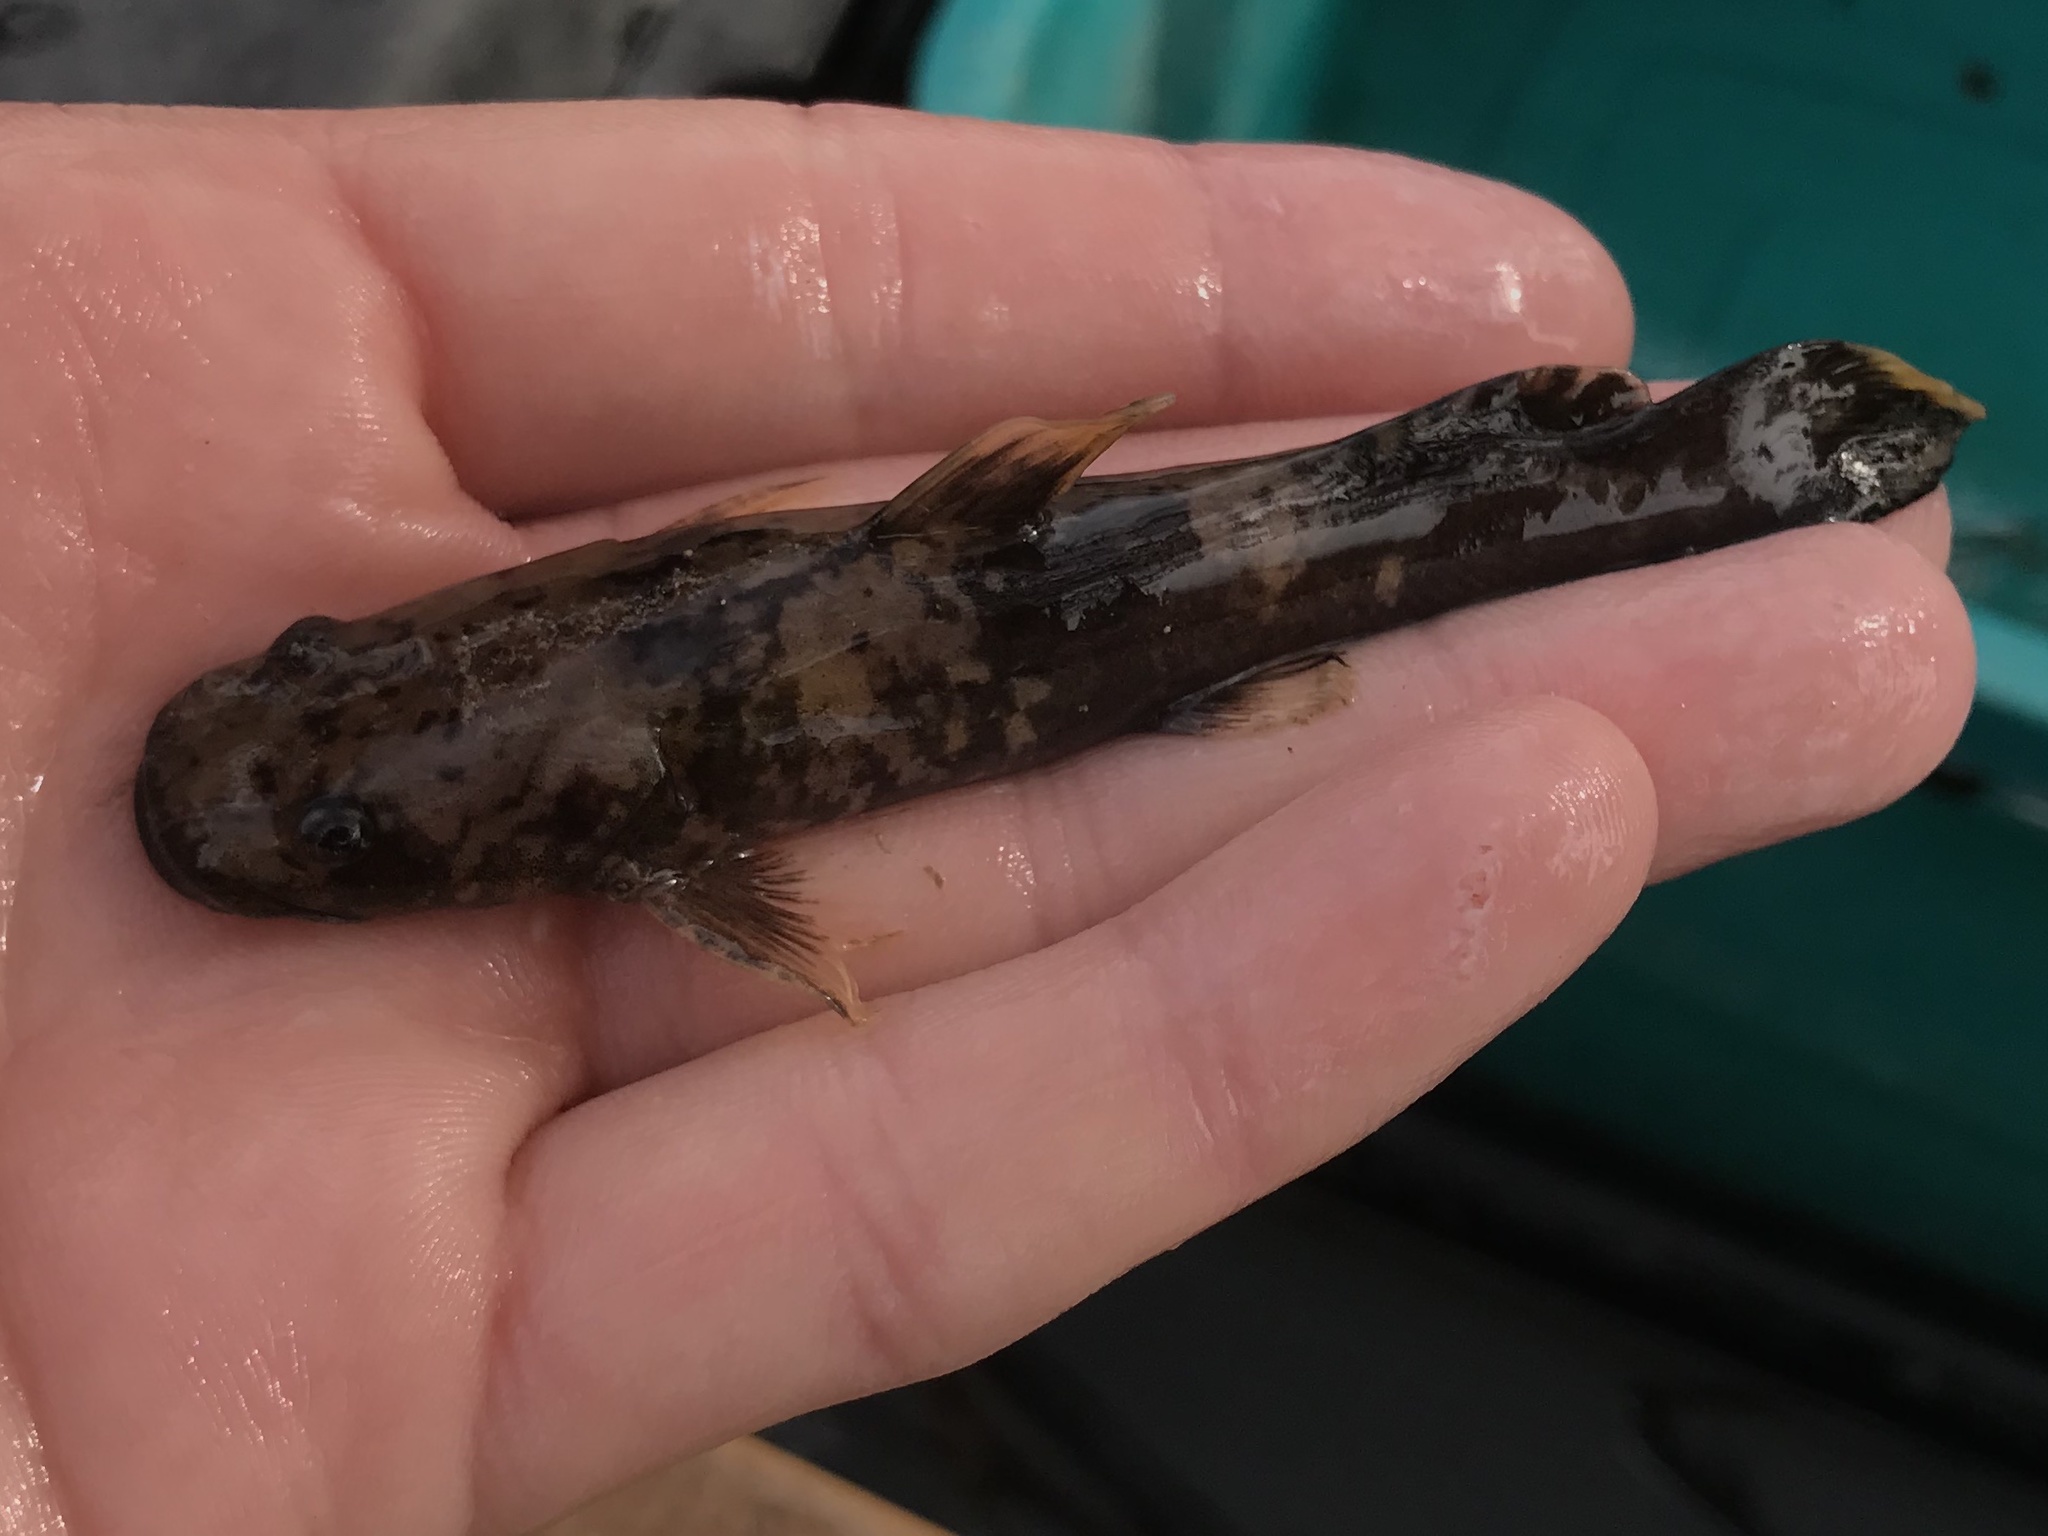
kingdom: Animalia
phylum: Chordata
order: Siluriformes
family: Ictaluridae
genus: Pylodictis
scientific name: Pylodictis olivaris
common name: Flathead catfish
